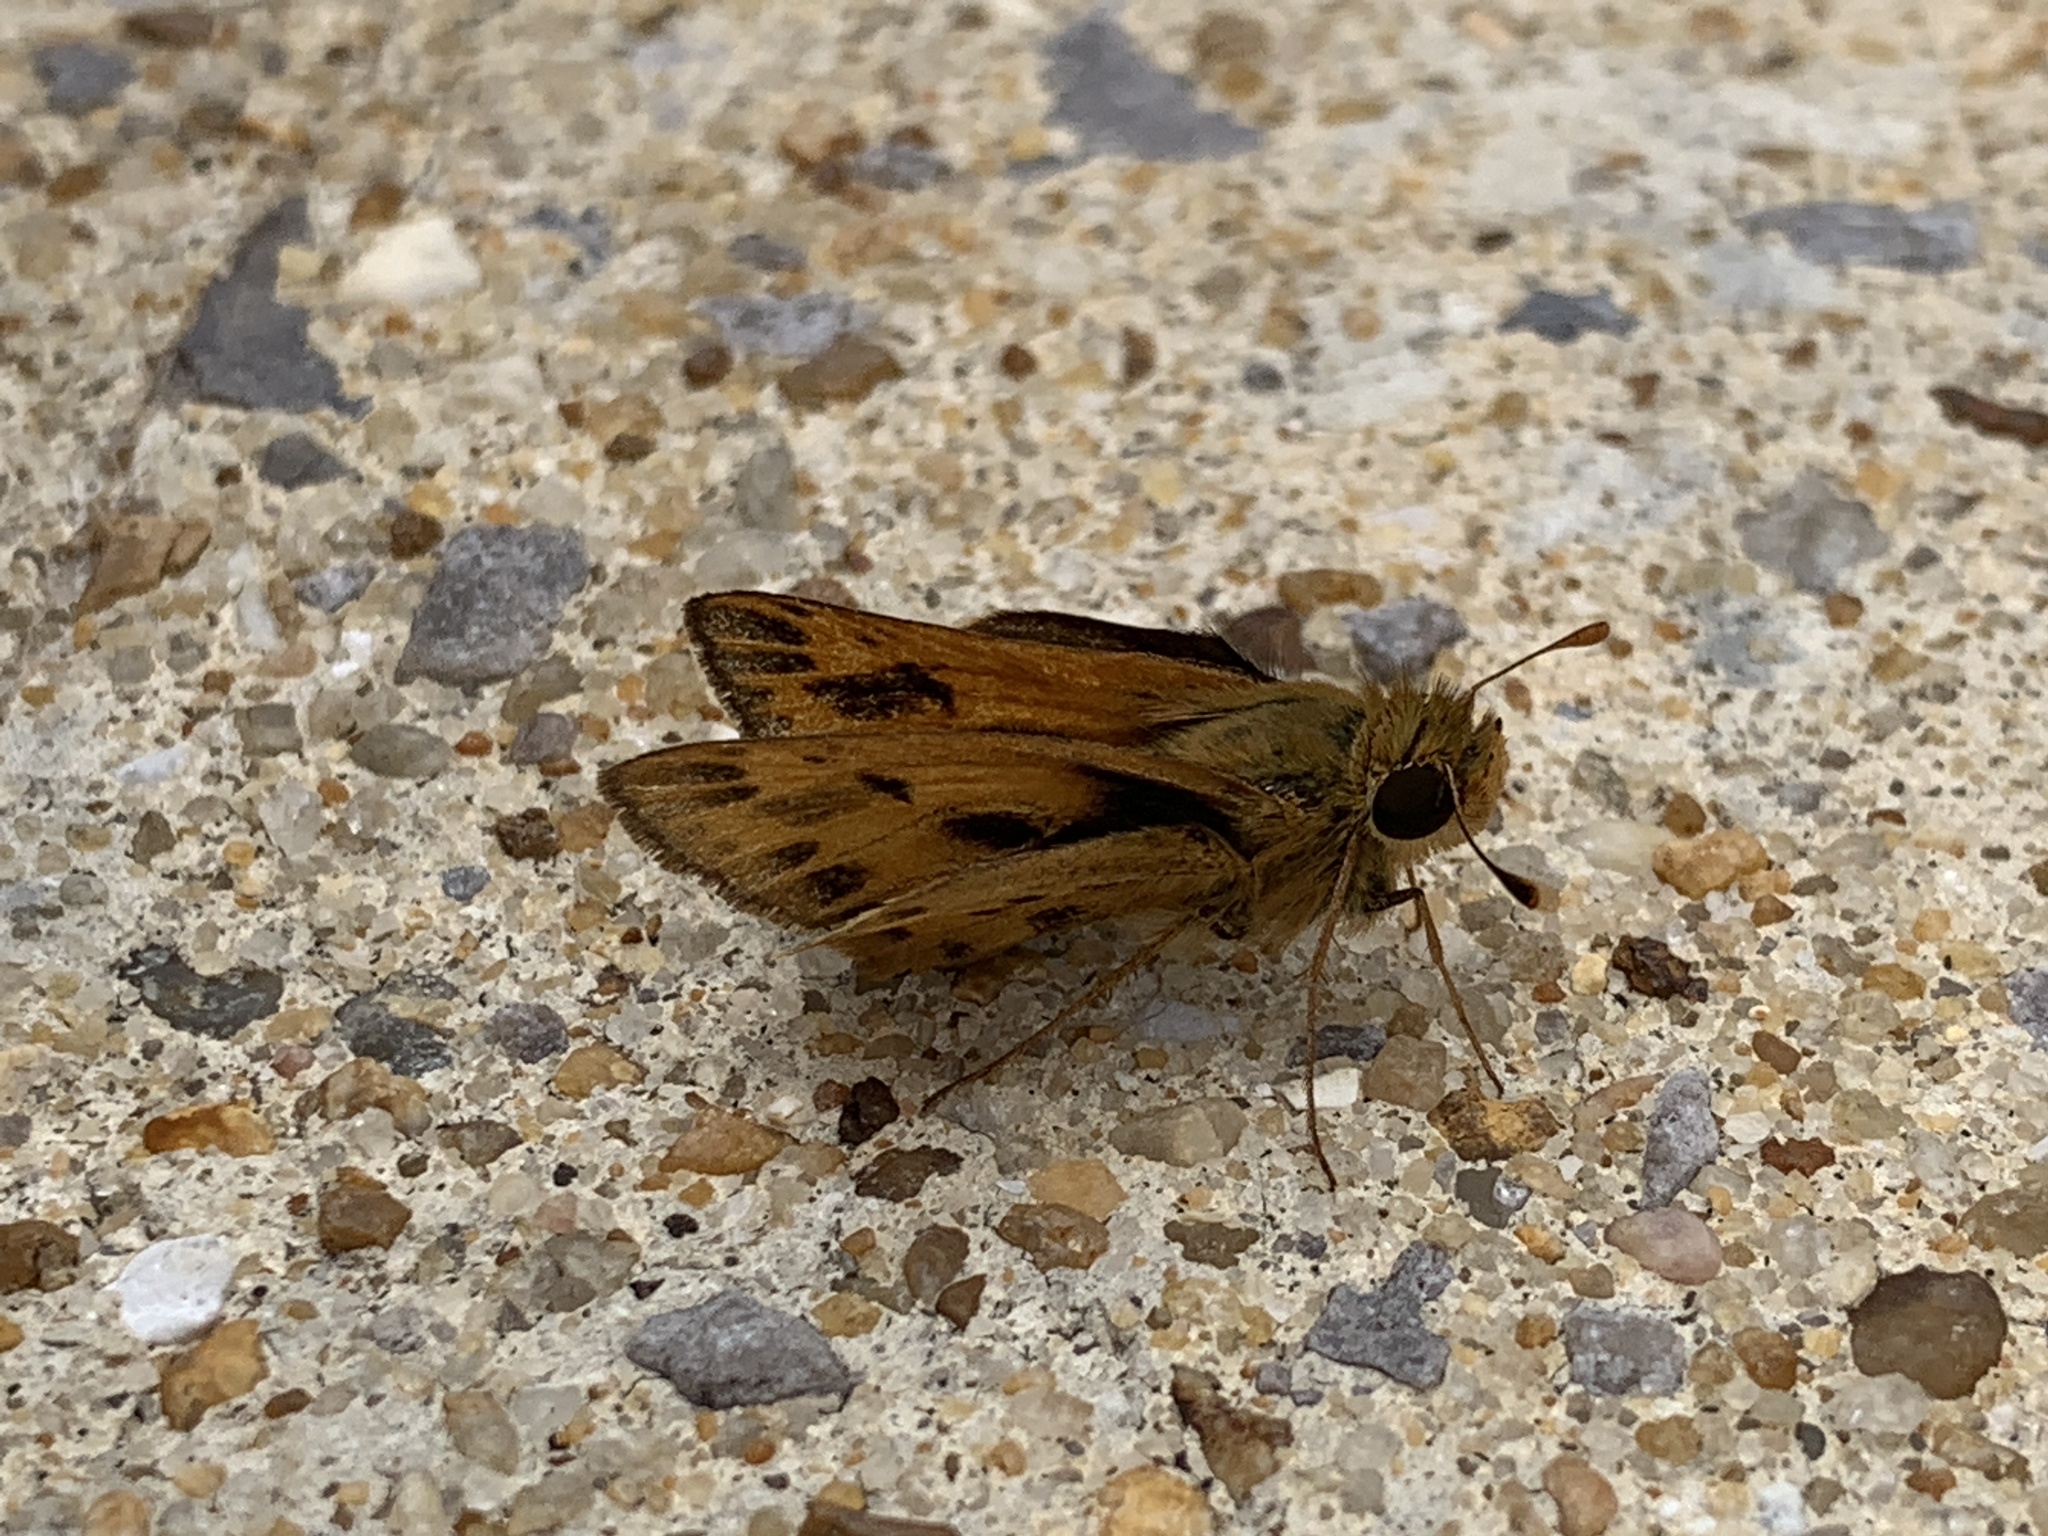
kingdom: Animalia
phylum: Arthropoda
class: Insecta
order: Lepidoptera
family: Hesperiidae
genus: Hylephila
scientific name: Hylephila phyleus
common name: Fiery skipper
